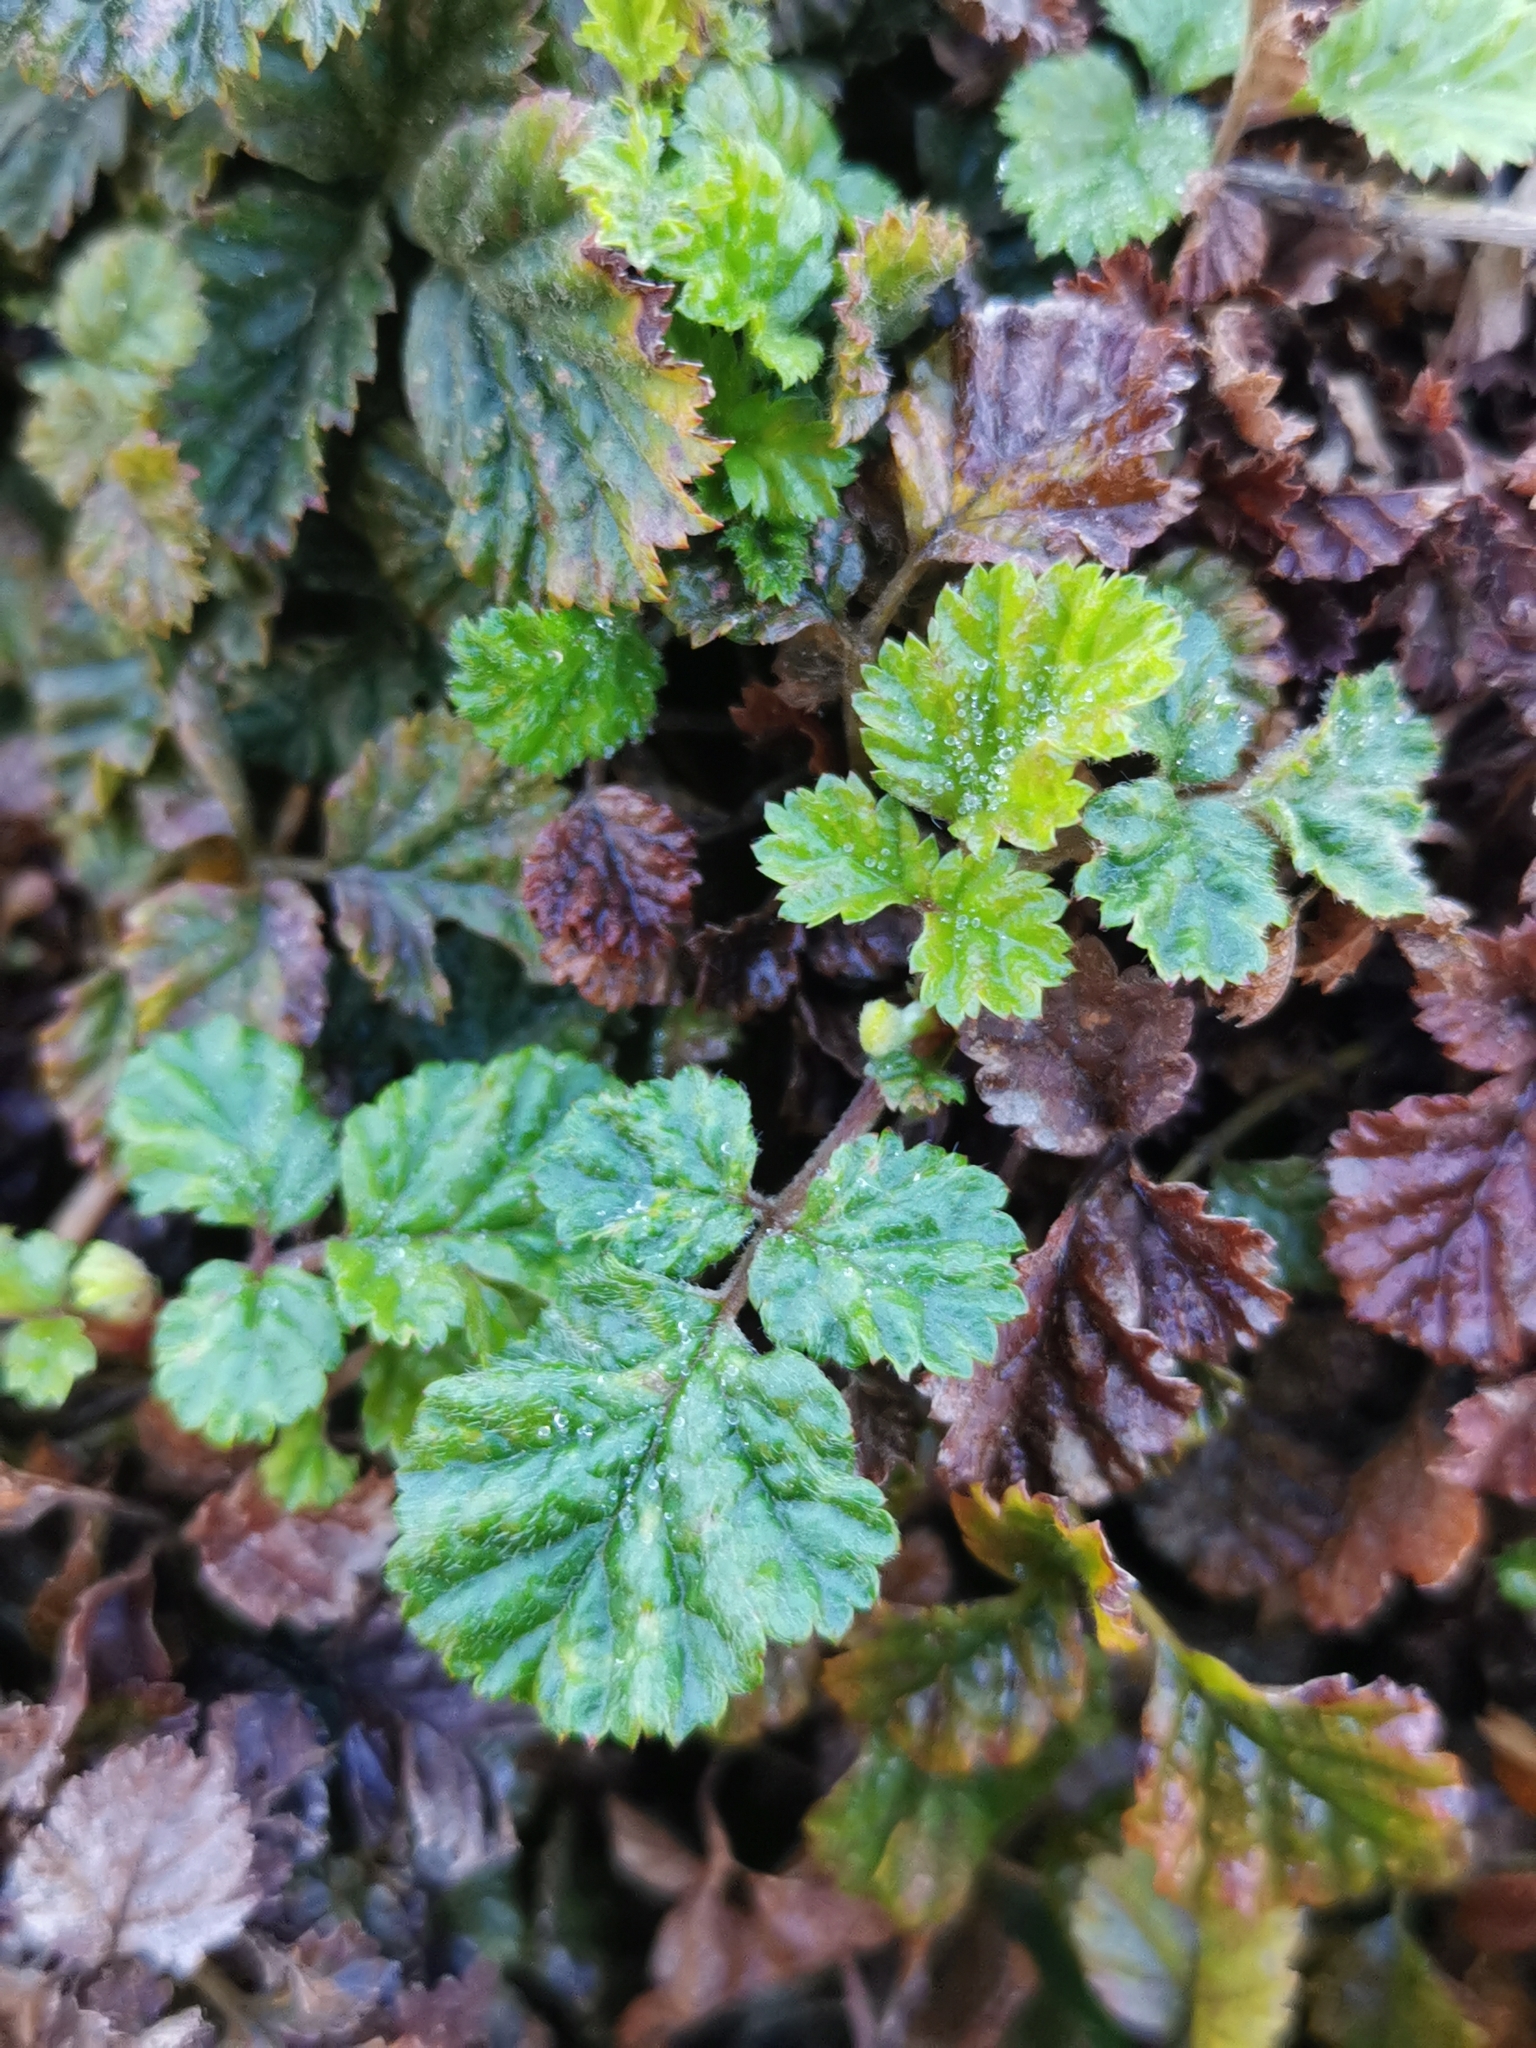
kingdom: Plantae
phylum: Tracheophyta
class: Magnoliopsida
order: Rosales
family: Rosaceae
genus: Rubus
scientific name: Rubus radicans
